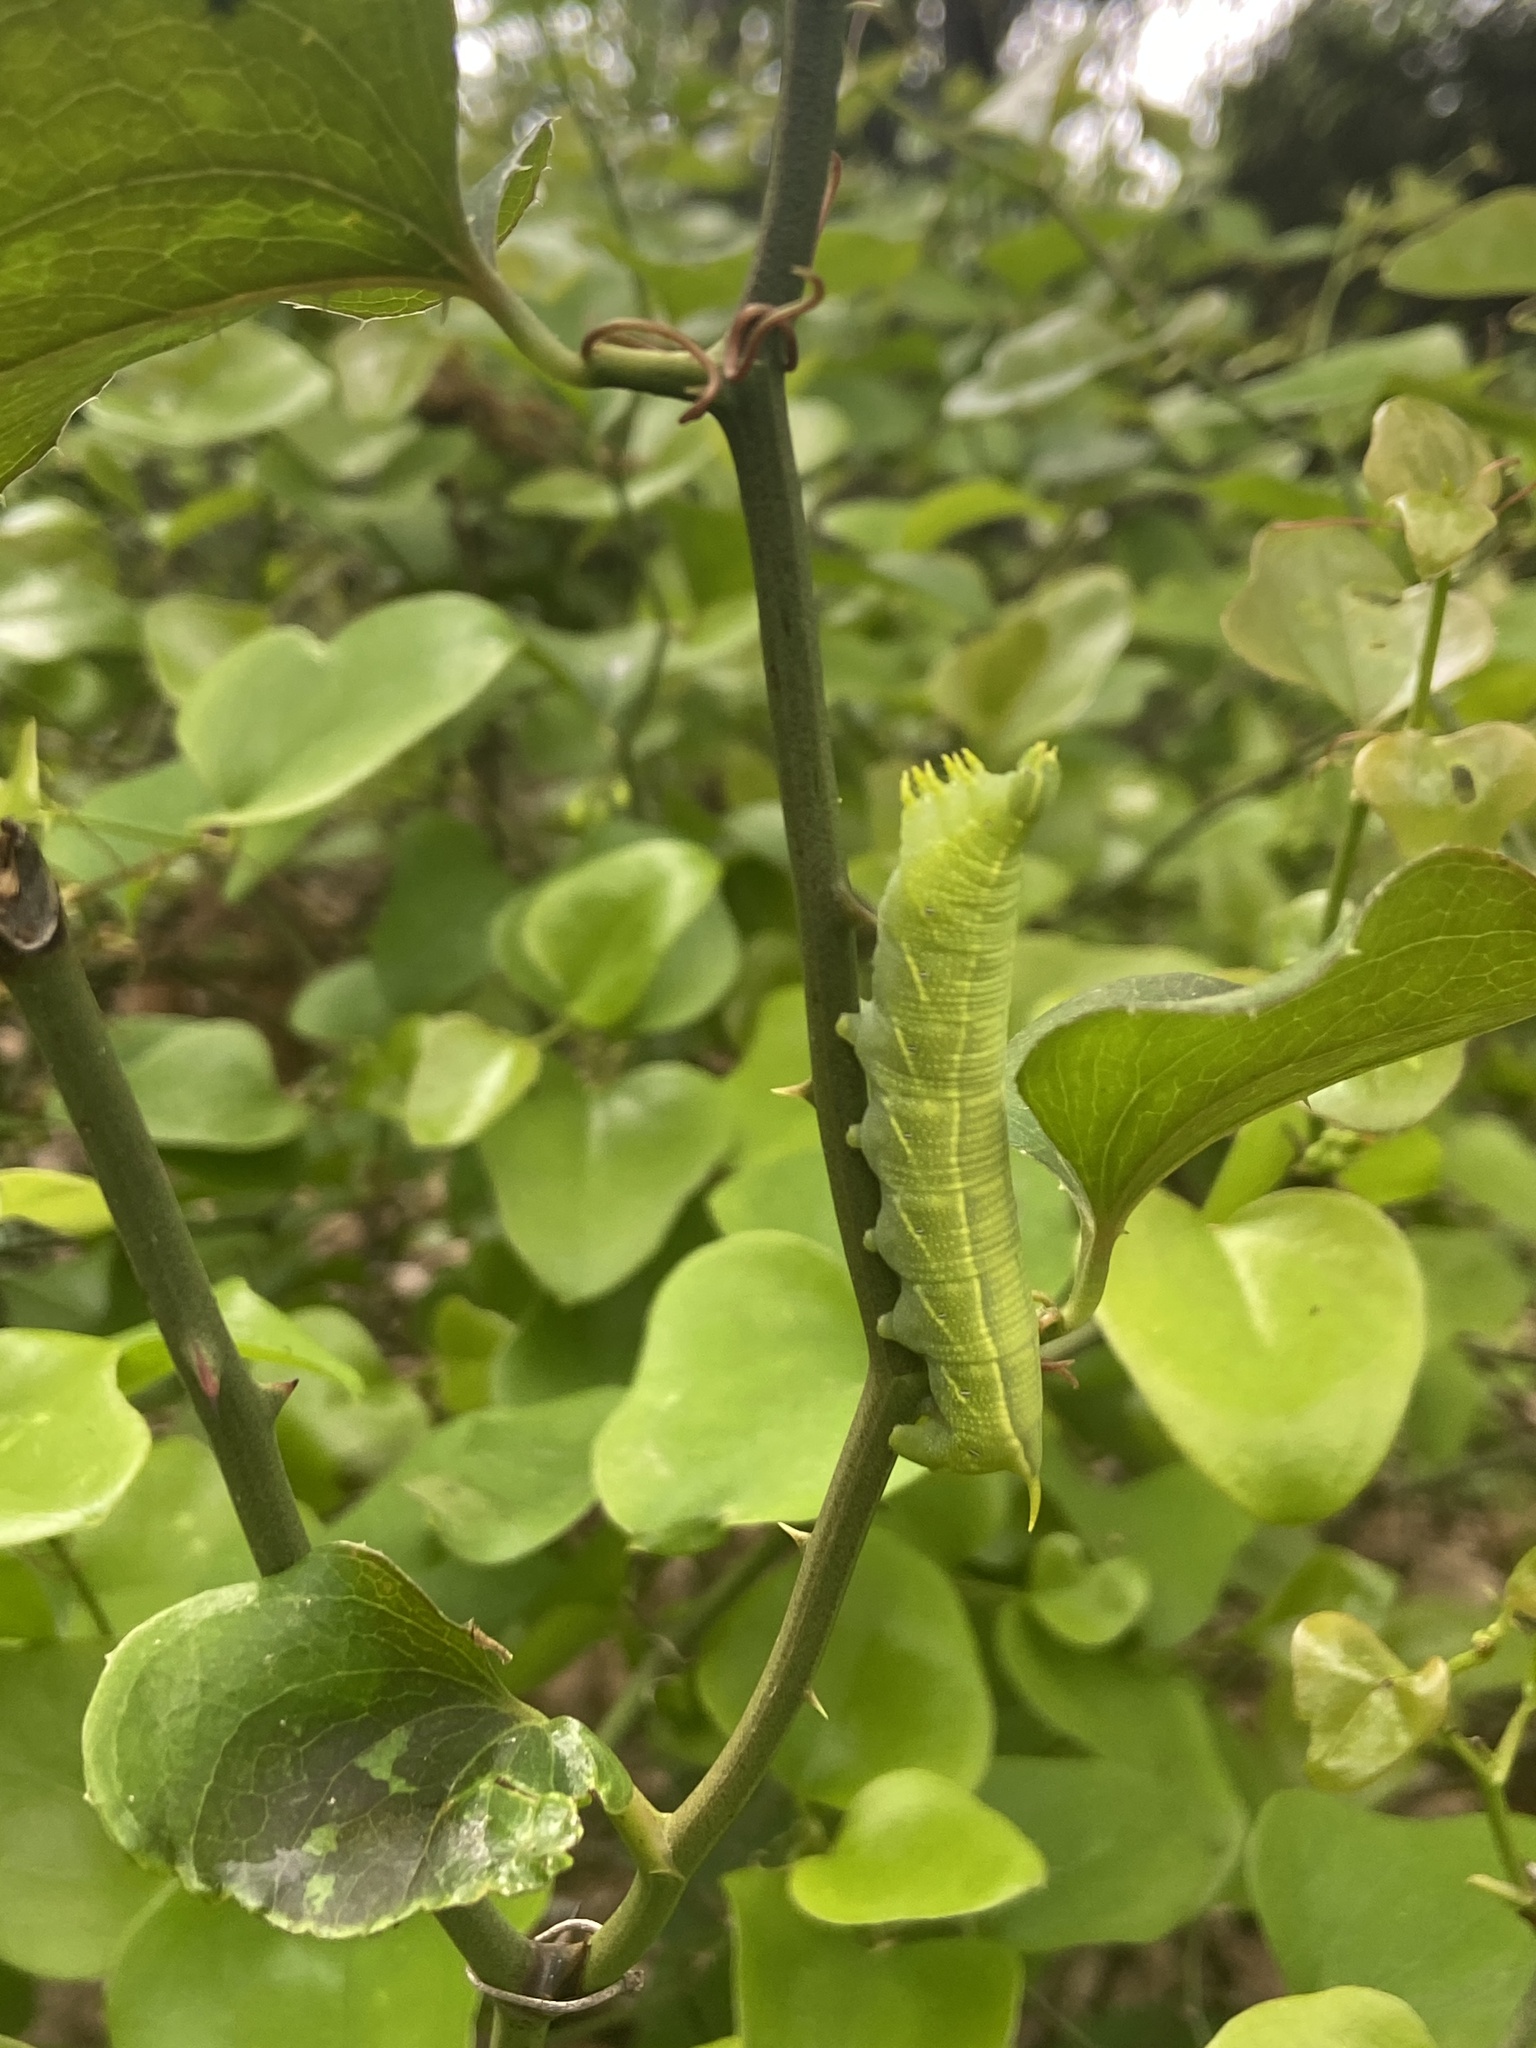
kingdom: Animalia
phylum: Arthropoda
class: Insecta
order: Lepidoptera
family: Sphingidae
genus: Deidamia
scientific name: Deidamia inscriptum
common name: Lettered sphinx
